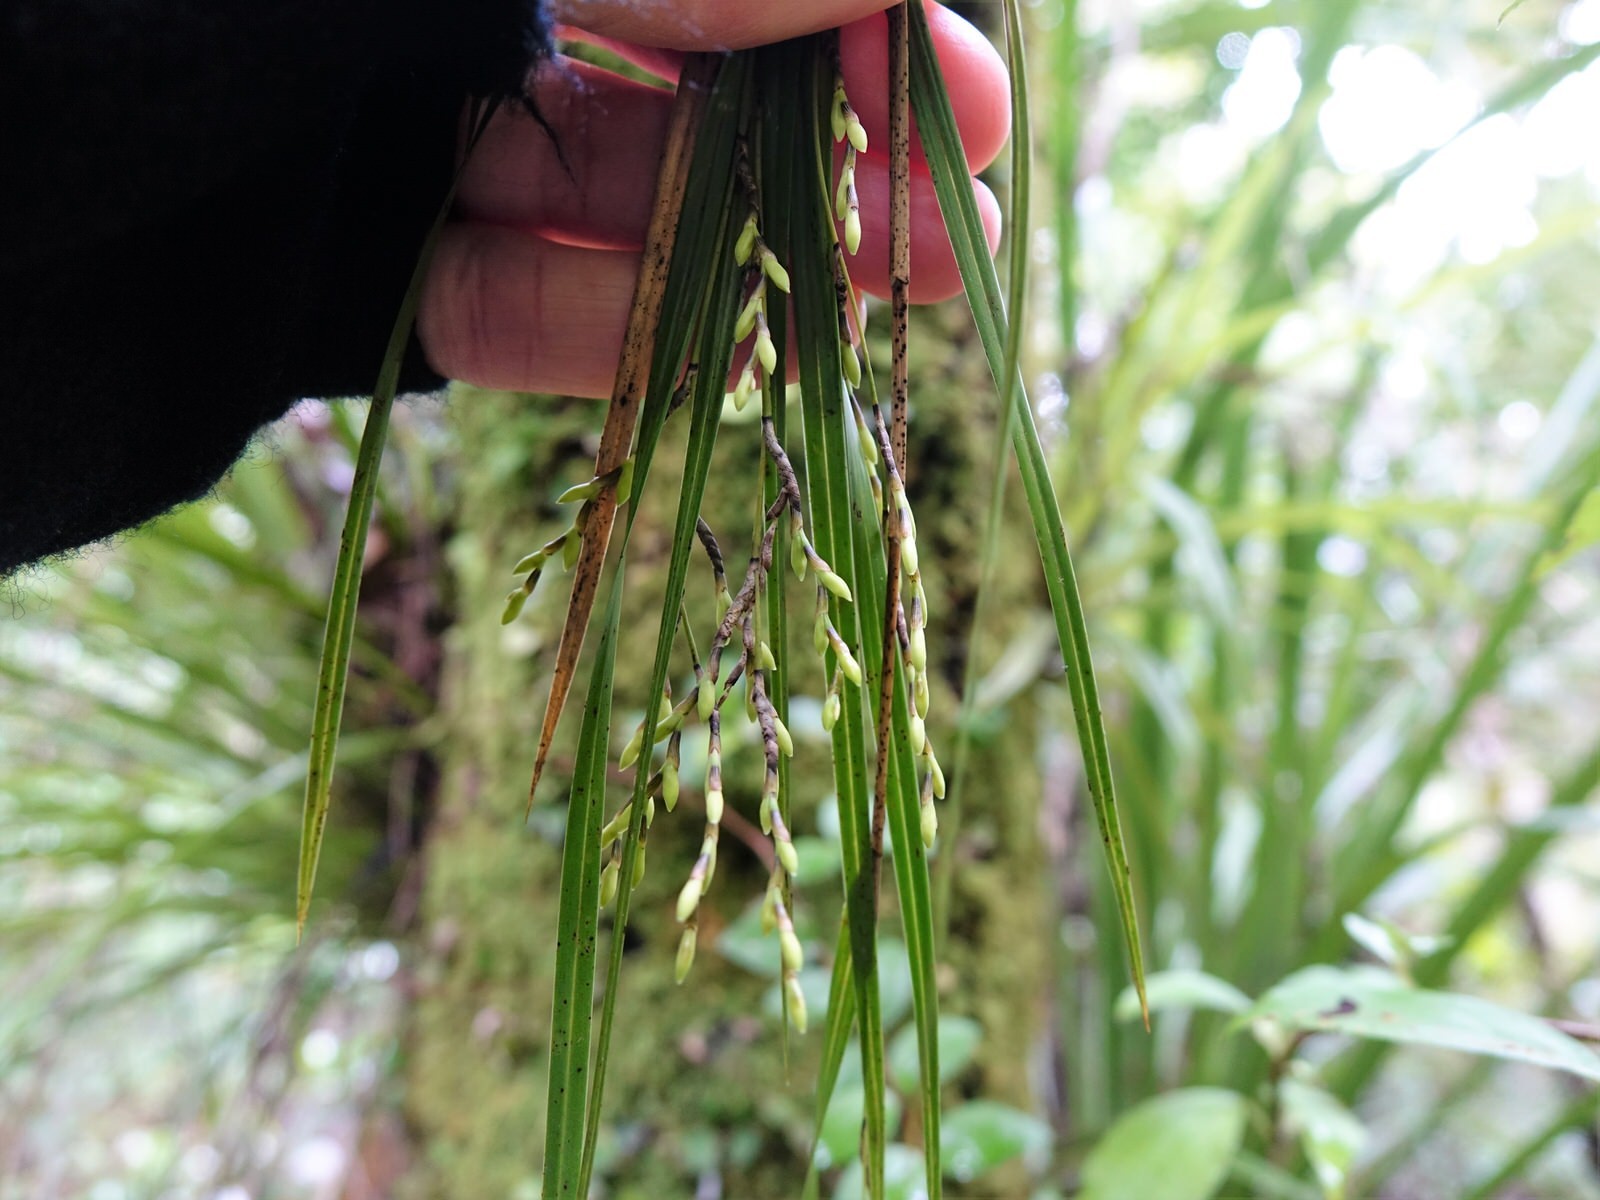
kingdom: Plantae
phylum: Tracheophyta
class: Liliopsida
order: Asparagales
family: Orchidaceae
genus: Earina
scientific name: Earina mucronata
